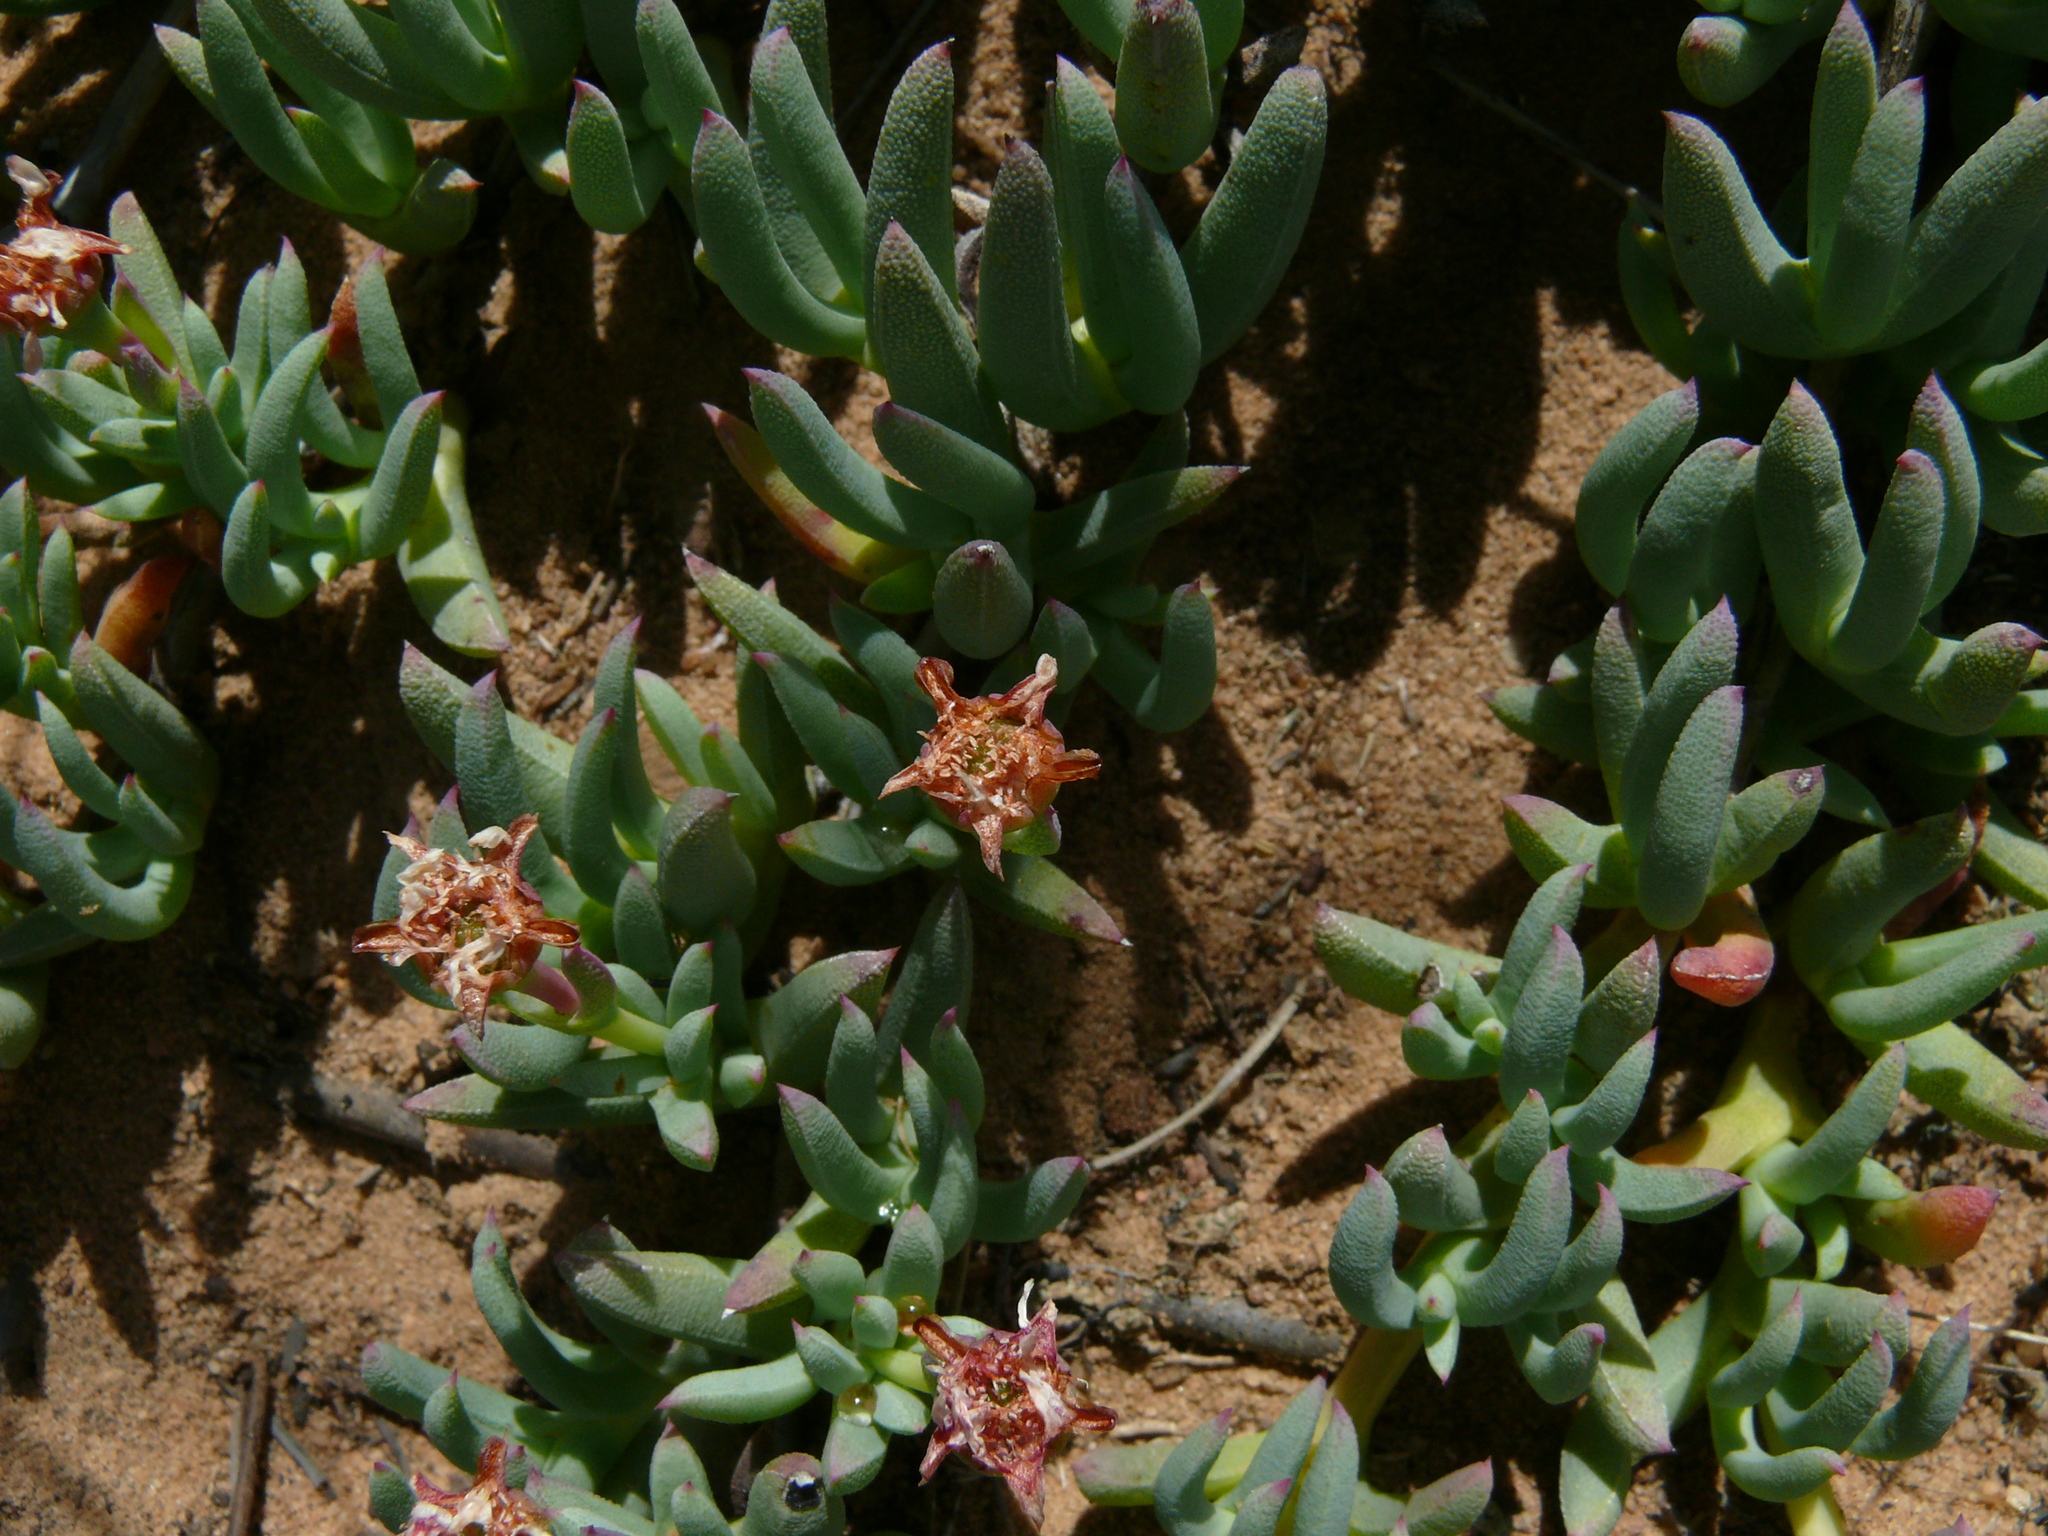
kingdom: Plantae
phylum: Tracheophyta
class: Magnoliopsida
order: Caryophyllales
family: Aizoaceae
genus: Phiambolia
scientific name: Phiambolia unca
